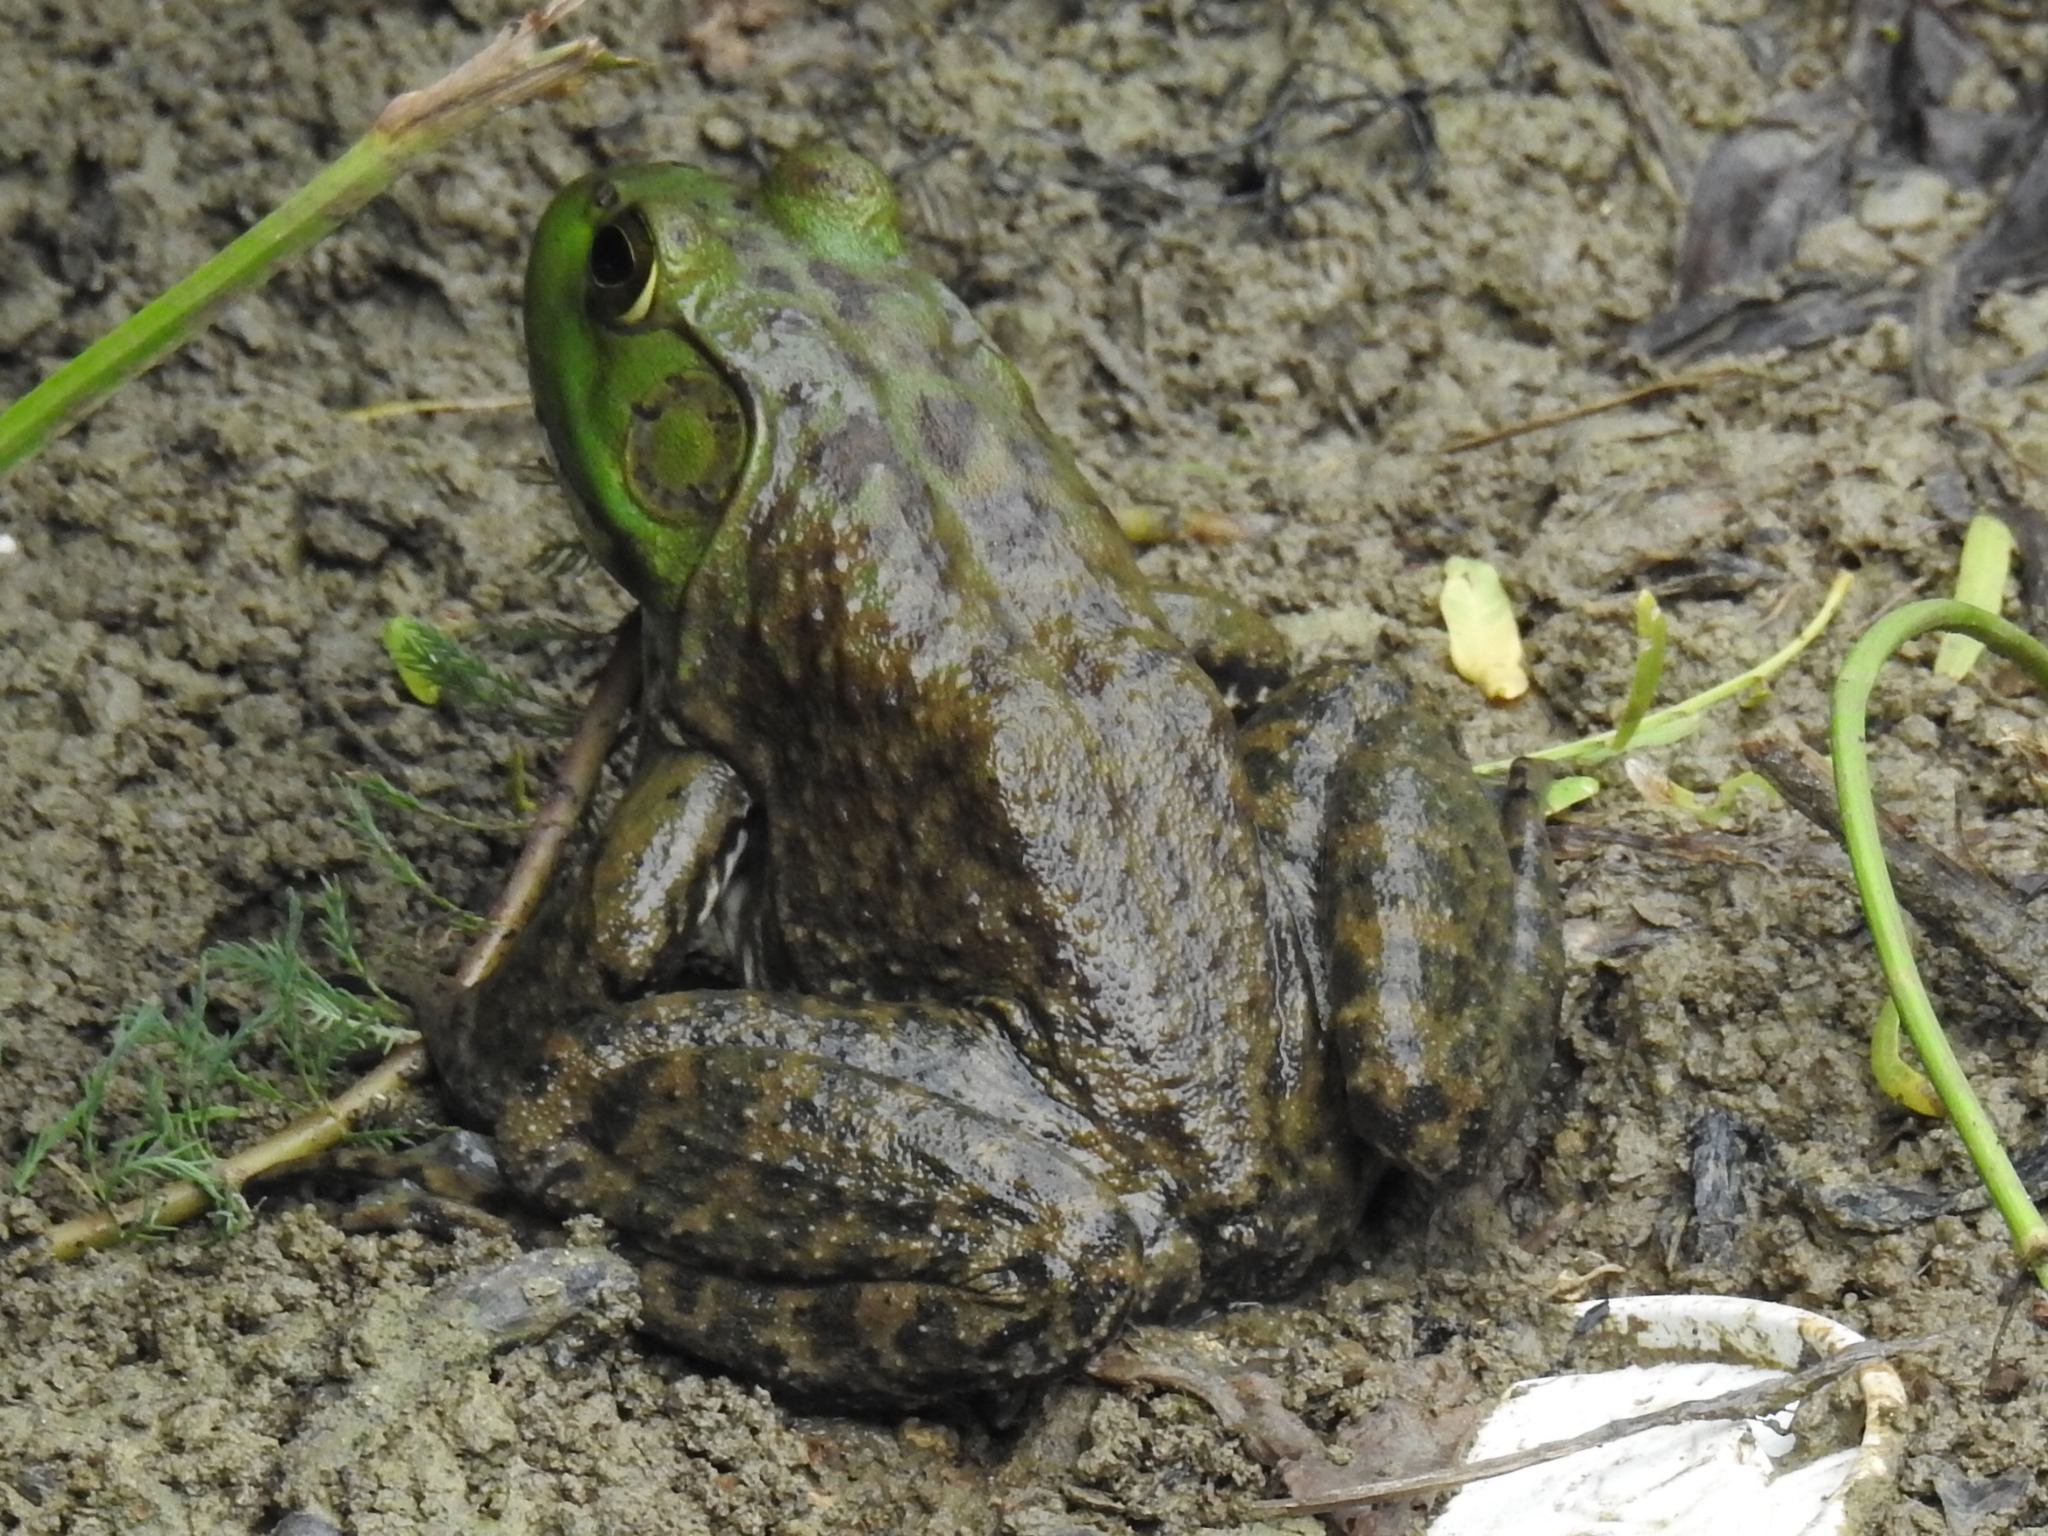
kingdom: Animalia
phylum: Chordata
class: Amphibia
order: Anura
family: Ranidae
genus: Lithobates
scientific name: Lithobates catesbeianus
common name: American bullfrog
